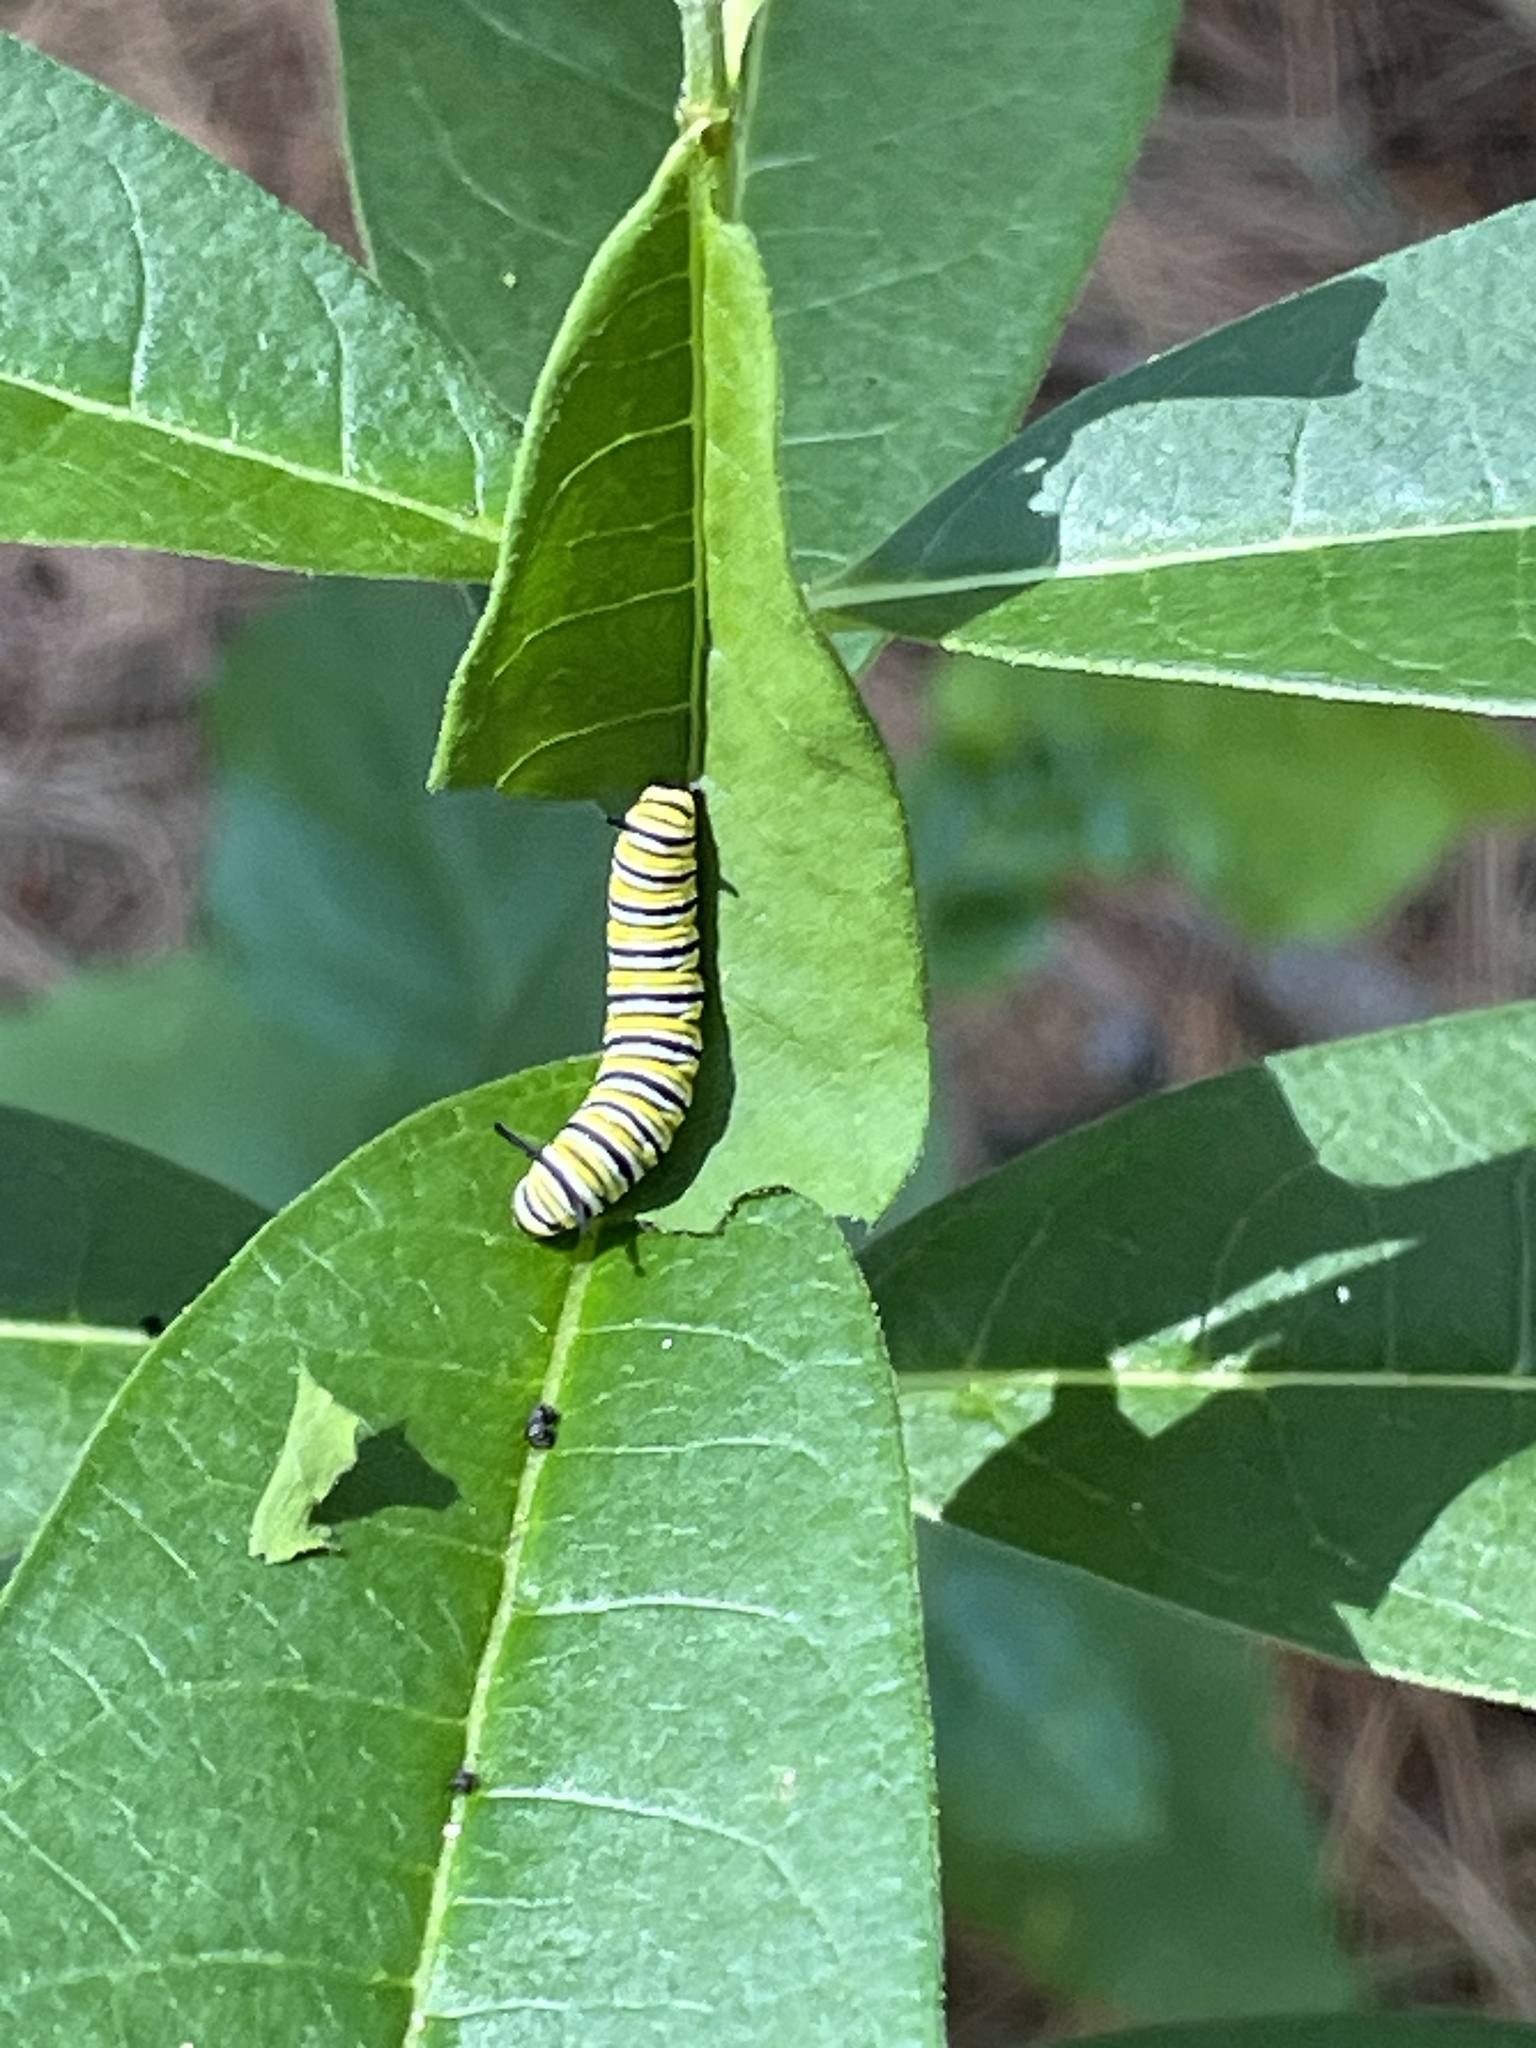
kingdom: Animalia
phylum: Arthropoda
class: Insecta
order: Lepidoptera
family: Nymphalidae
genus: Danaus
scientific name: Danaus plexippus
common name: Monarch
